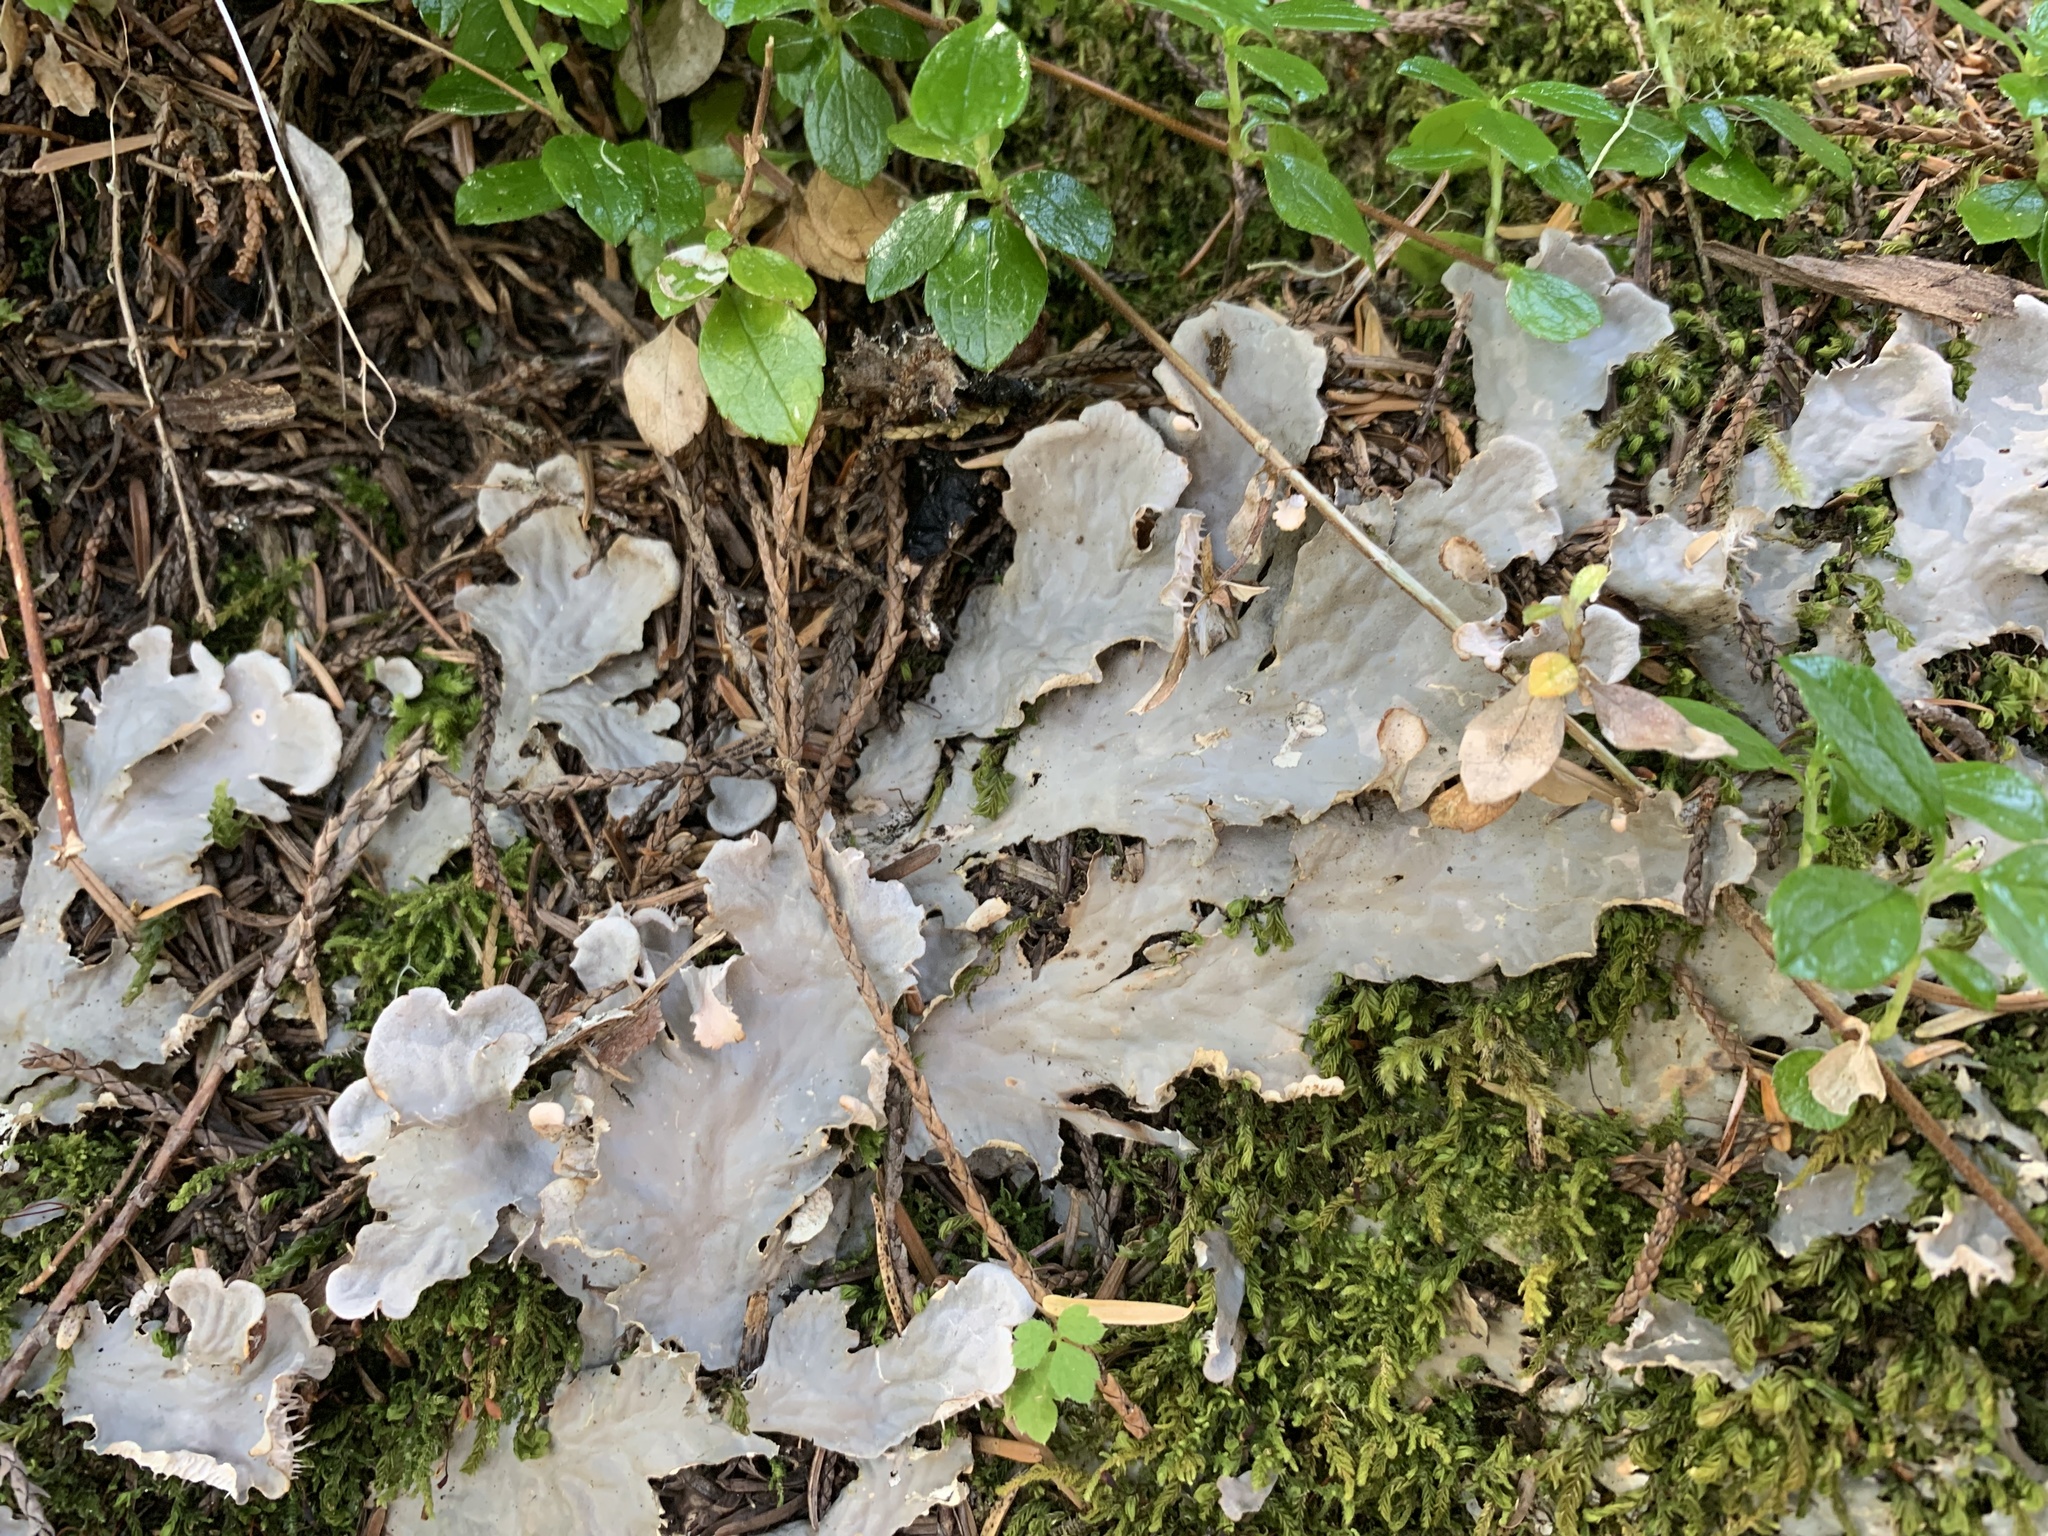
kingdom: Fungi
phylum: Ascomycota
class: Lecanoromycetes
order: Peltigerales
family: Peltigeraceae
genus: Peltigera
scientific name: Peltigera canina
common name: Dog pelt lichen
